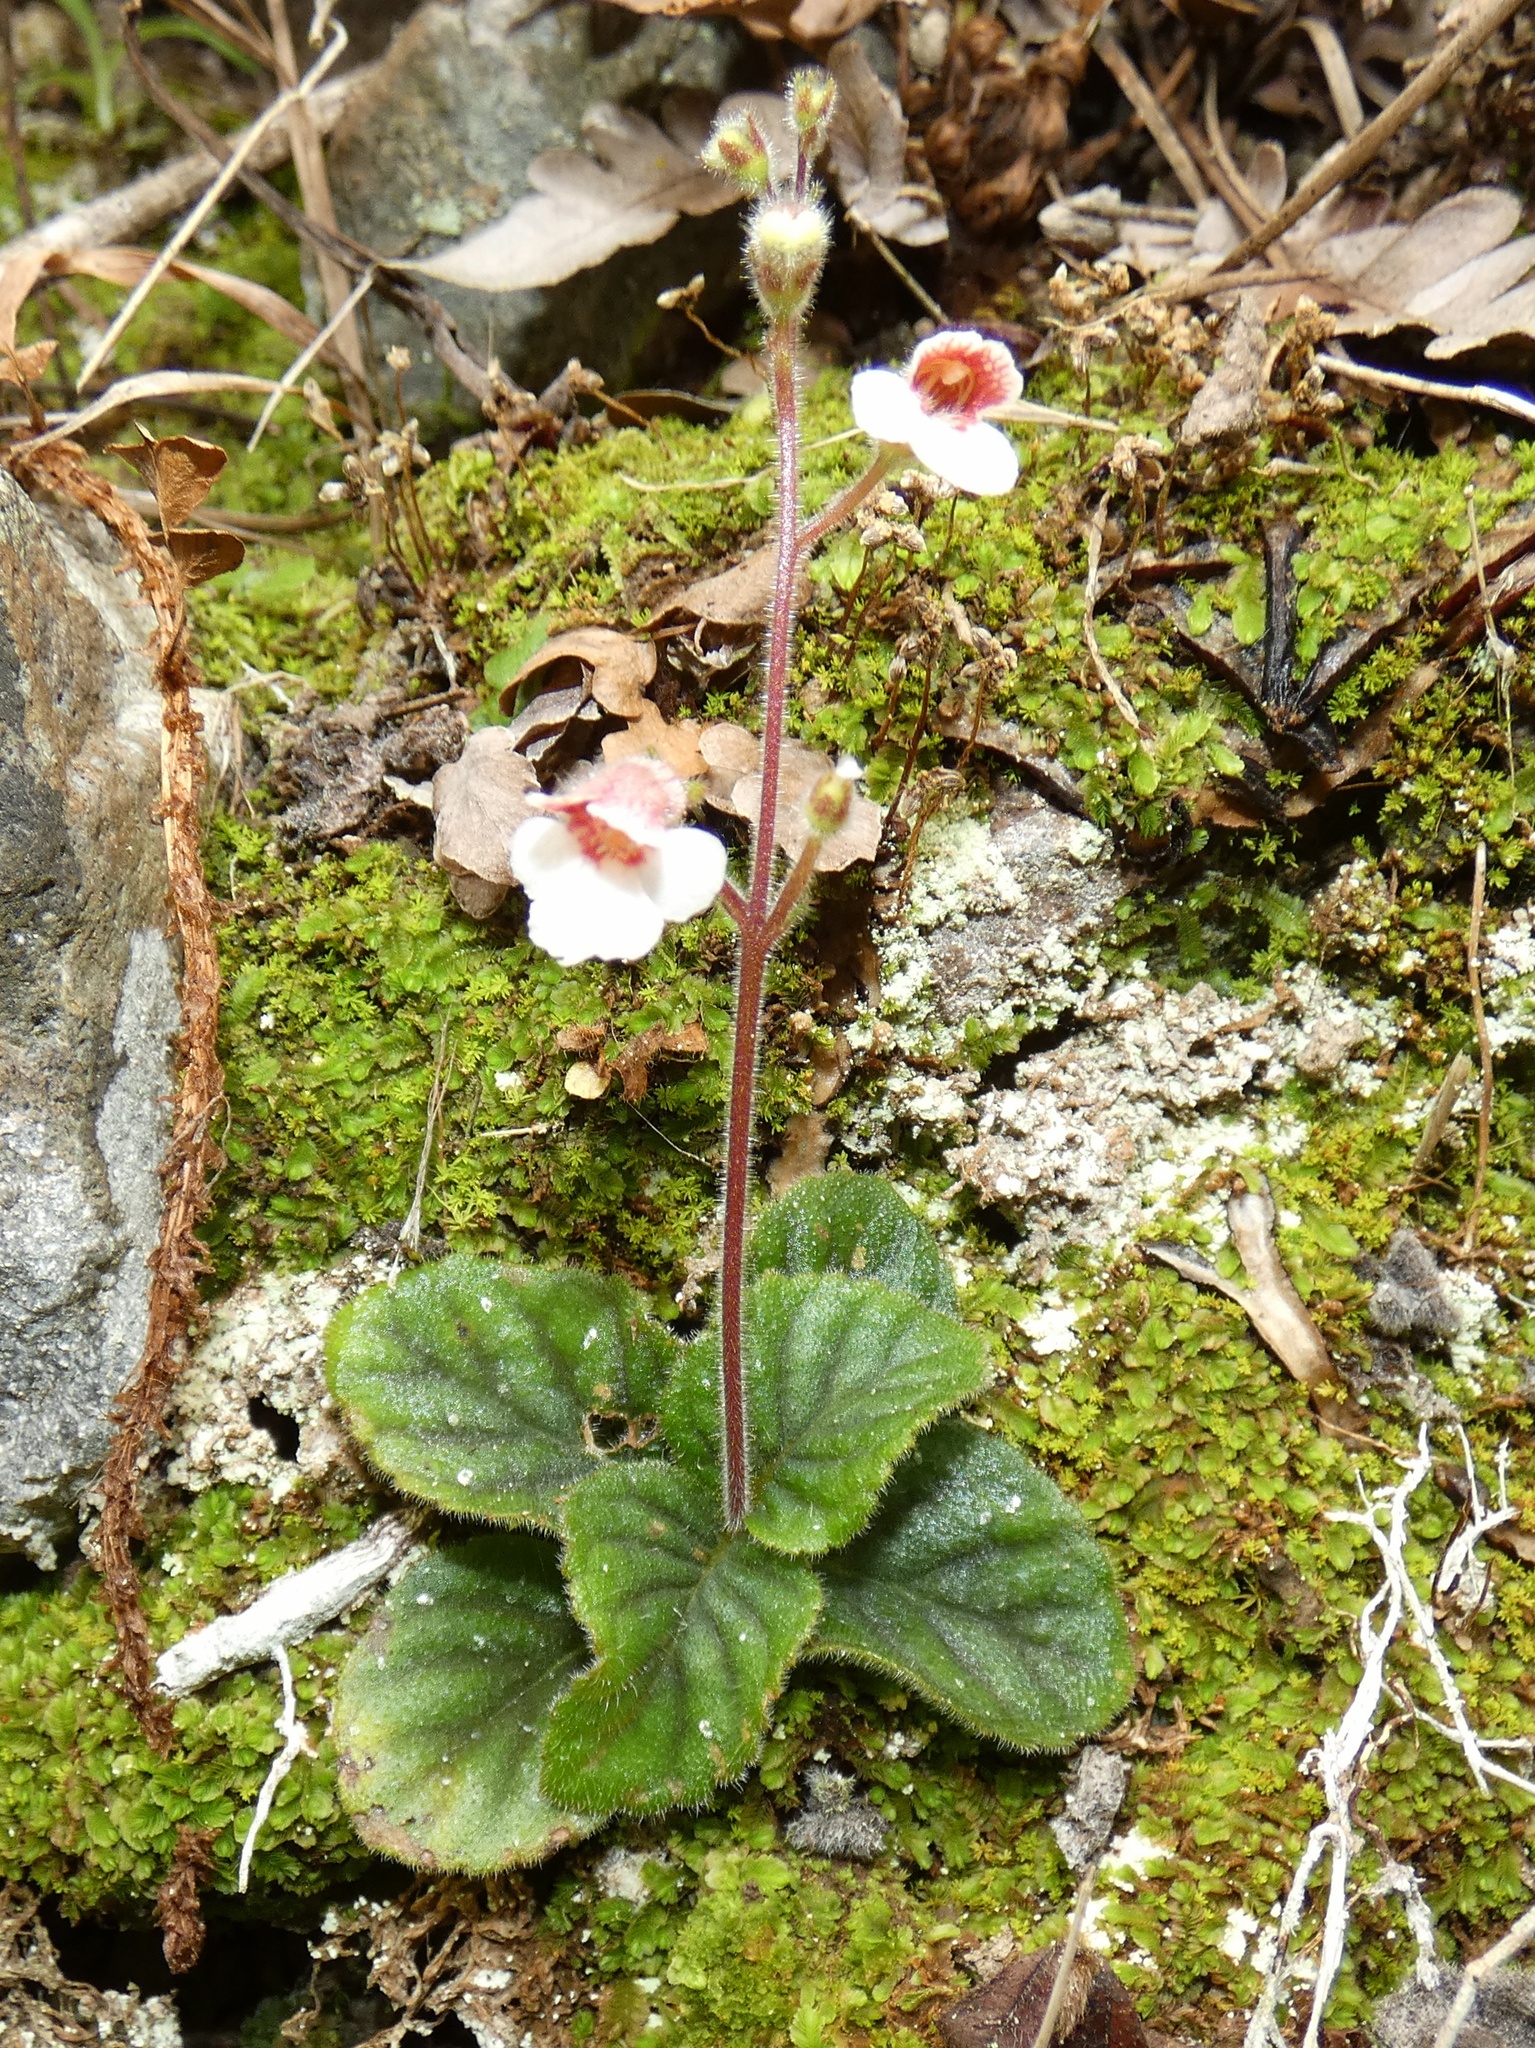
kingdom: Plantae
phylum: Tracheophyta
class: Magnoliopsida
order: Lamiales
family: Gesneriaceae
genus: Gloxinia
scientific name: Gloxinia erinoides
